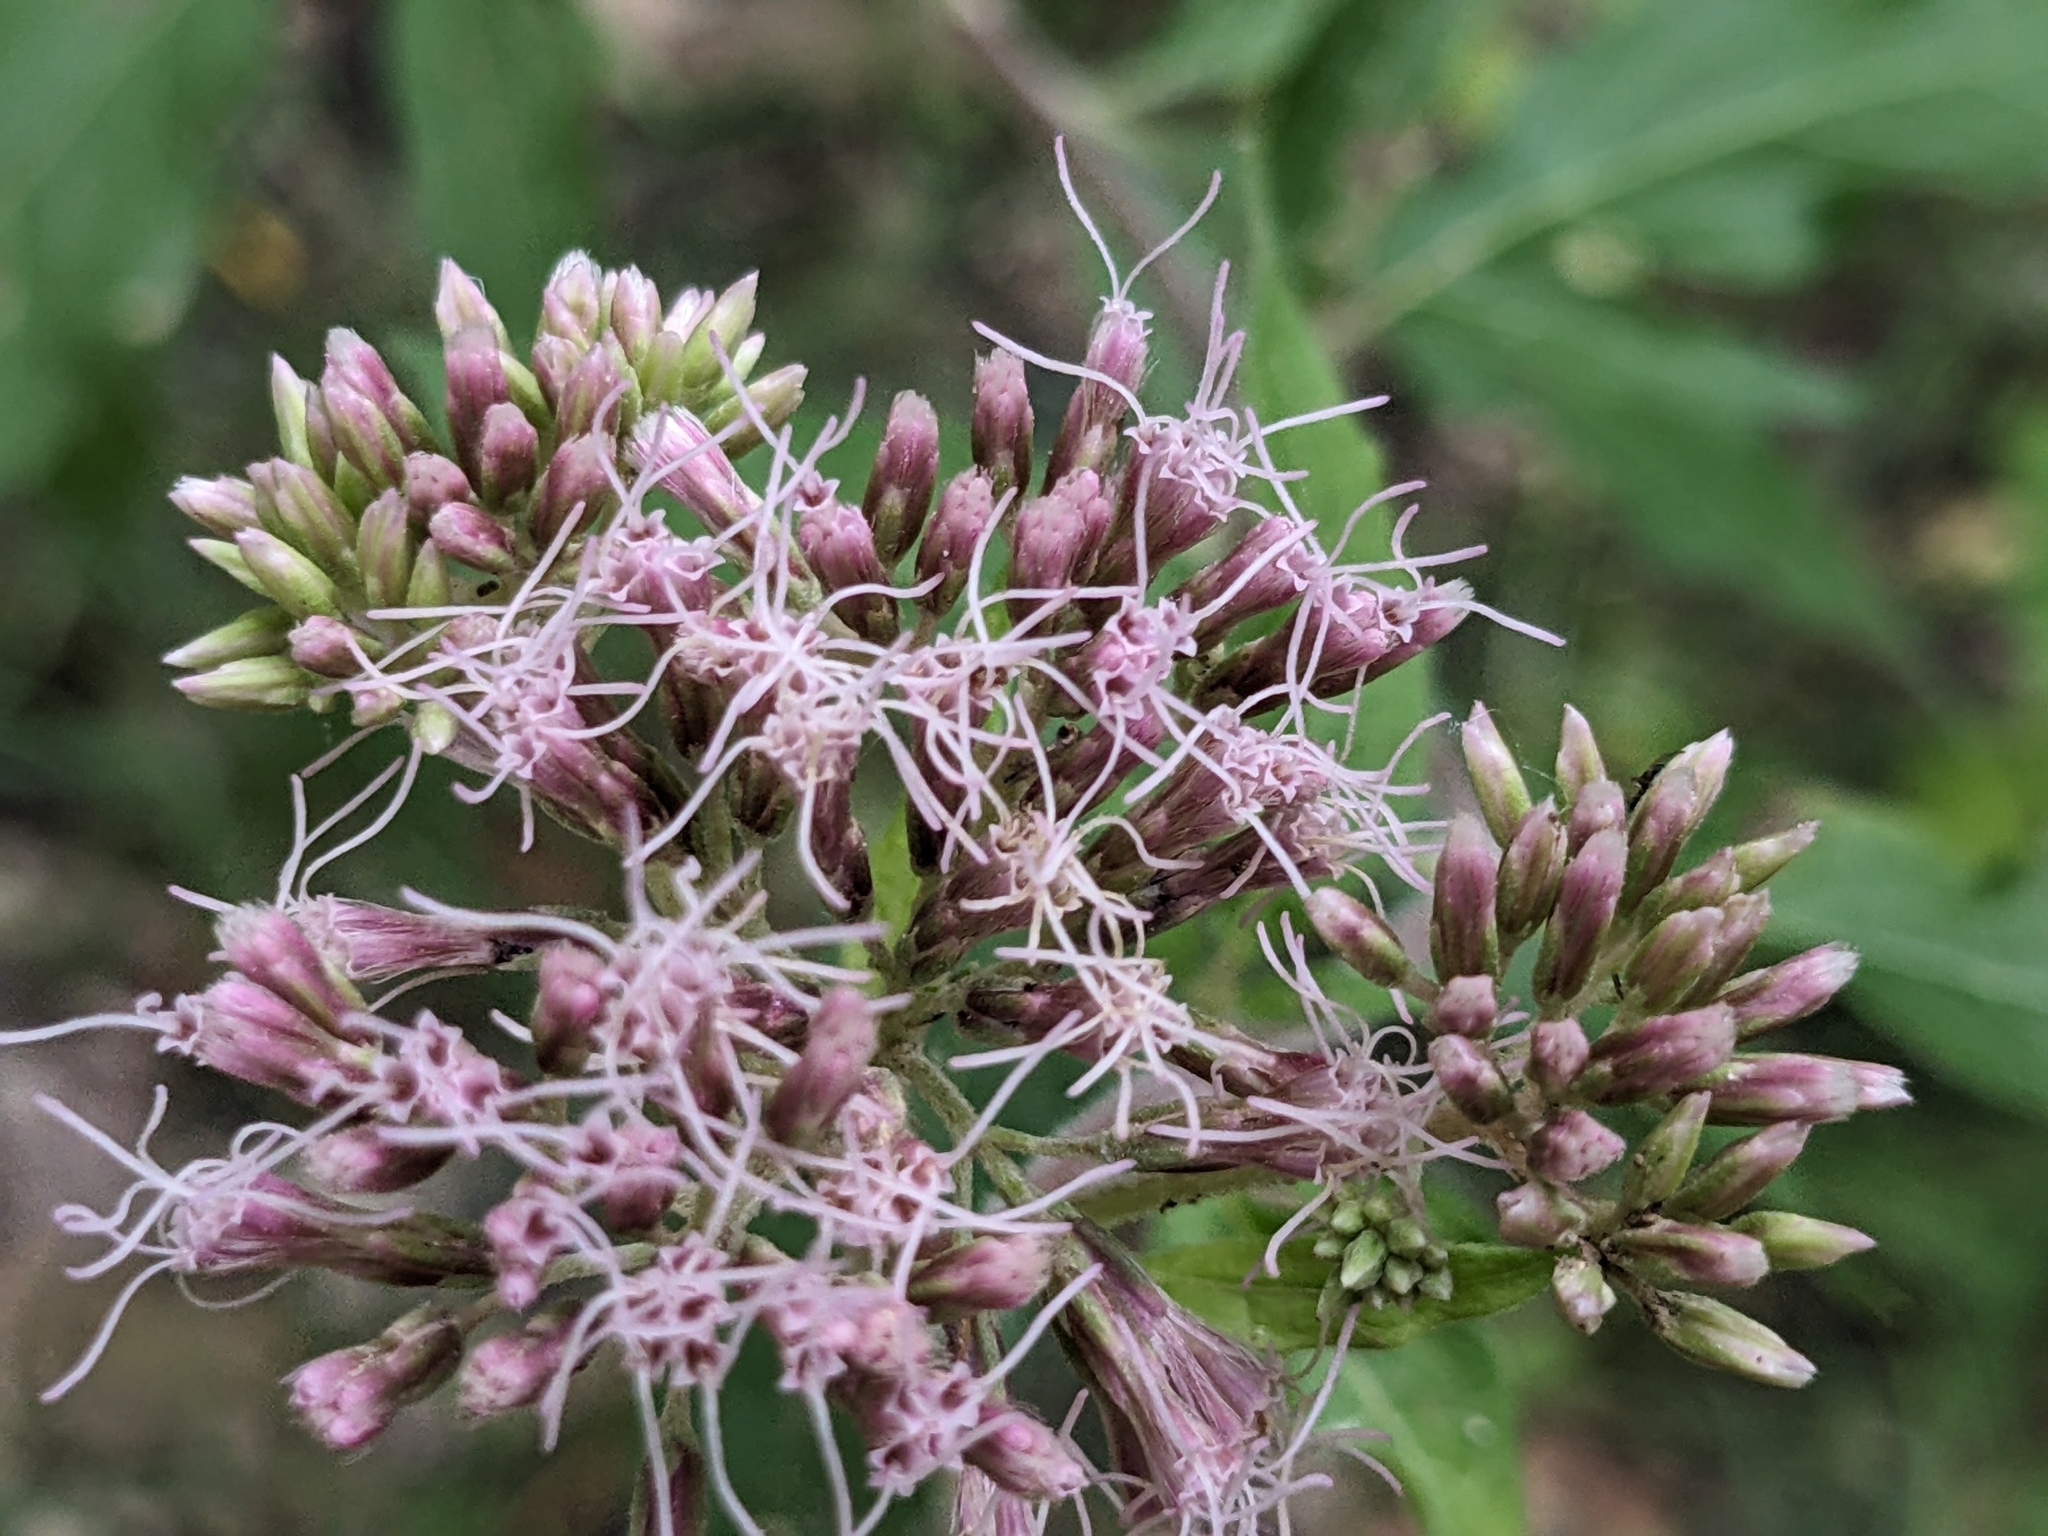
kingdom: Plantae
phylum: Tracheophyta
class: Magnoliopsida
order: Asterales
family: Asteraceae
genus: Eupatorium
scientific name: Eupatorium cannabinum
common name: Hemp-agrimony
